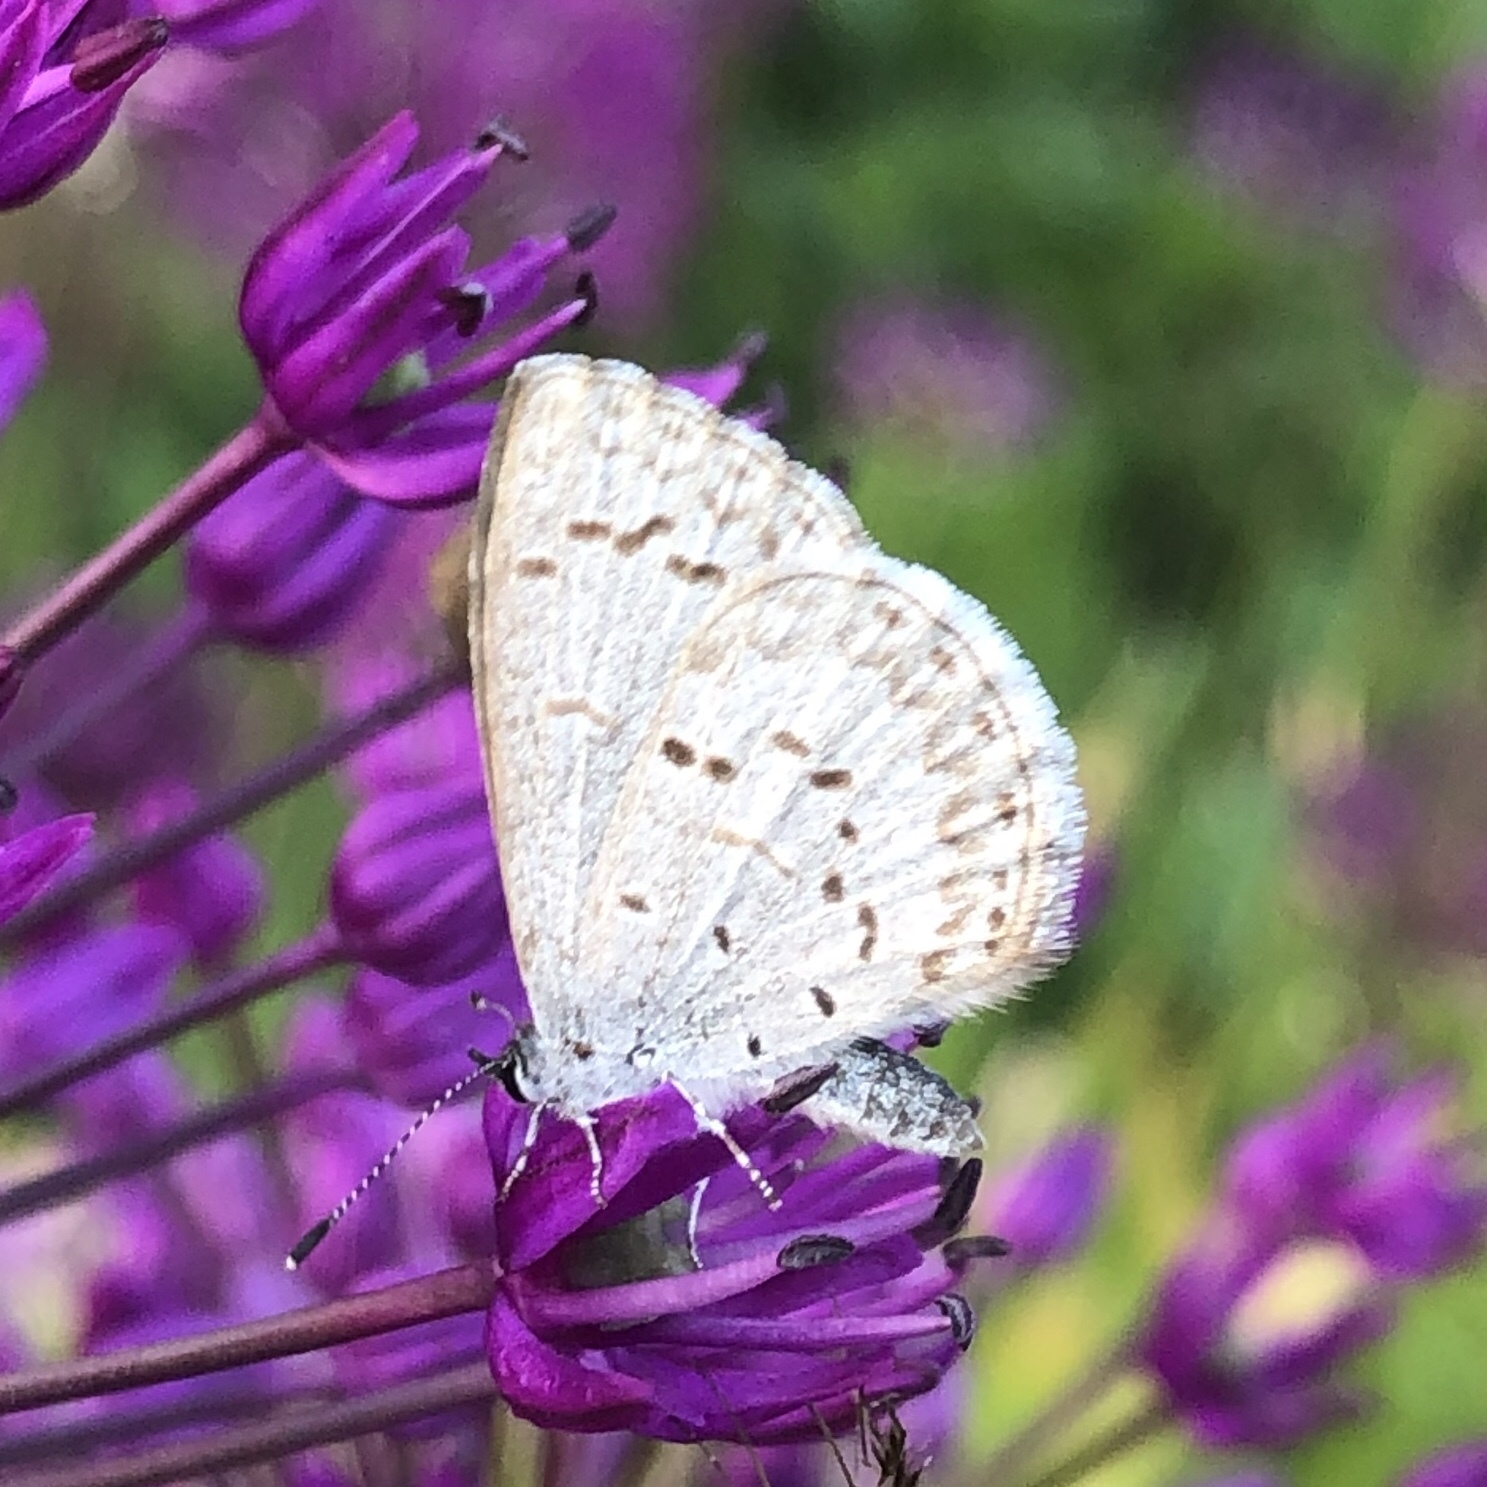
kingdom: Animalia
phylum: Arthropoda
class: Insecta
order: Lepidoptera
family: Lycaenidae
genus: Celastrina
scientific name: Celastrina lucia
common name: Lucia azure
